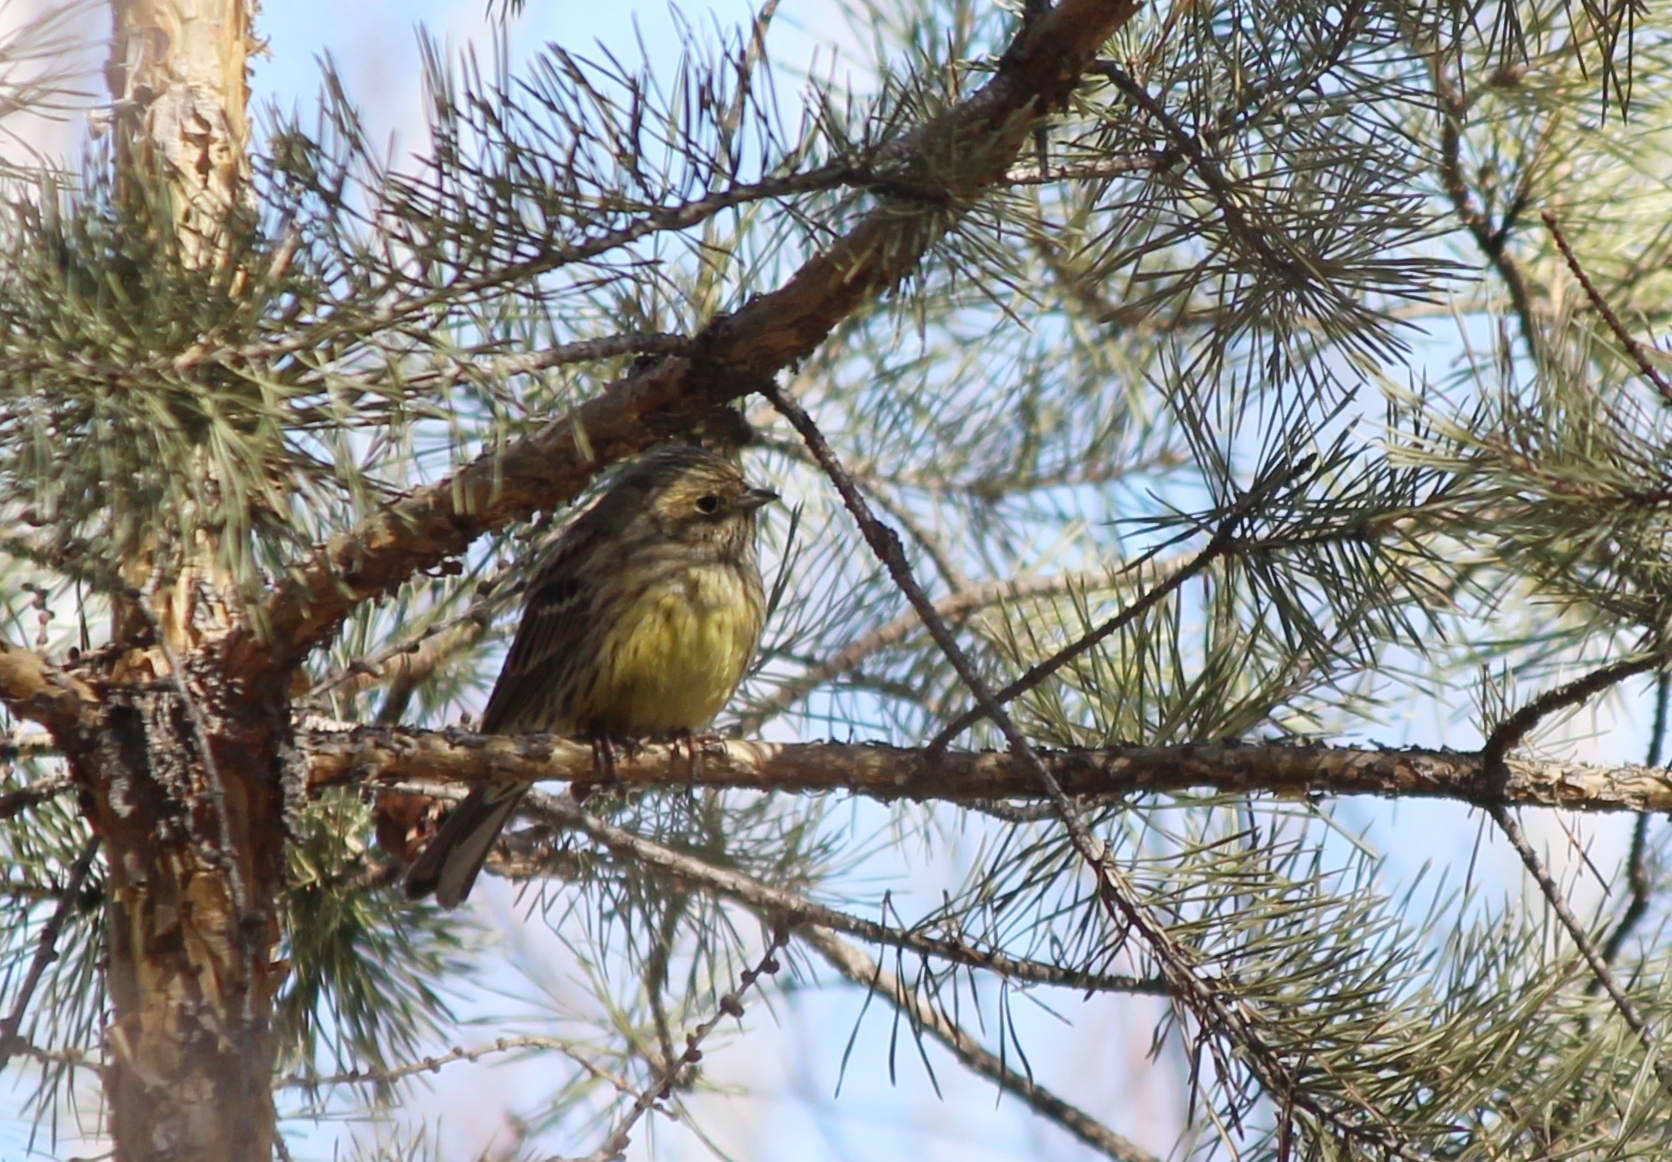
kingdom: Animalia
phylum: Chordata
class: Aves
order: Passeriformes
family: Emberizidae
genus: Emberiza
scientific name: Emberiza citrinella
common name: Yellowhammer
